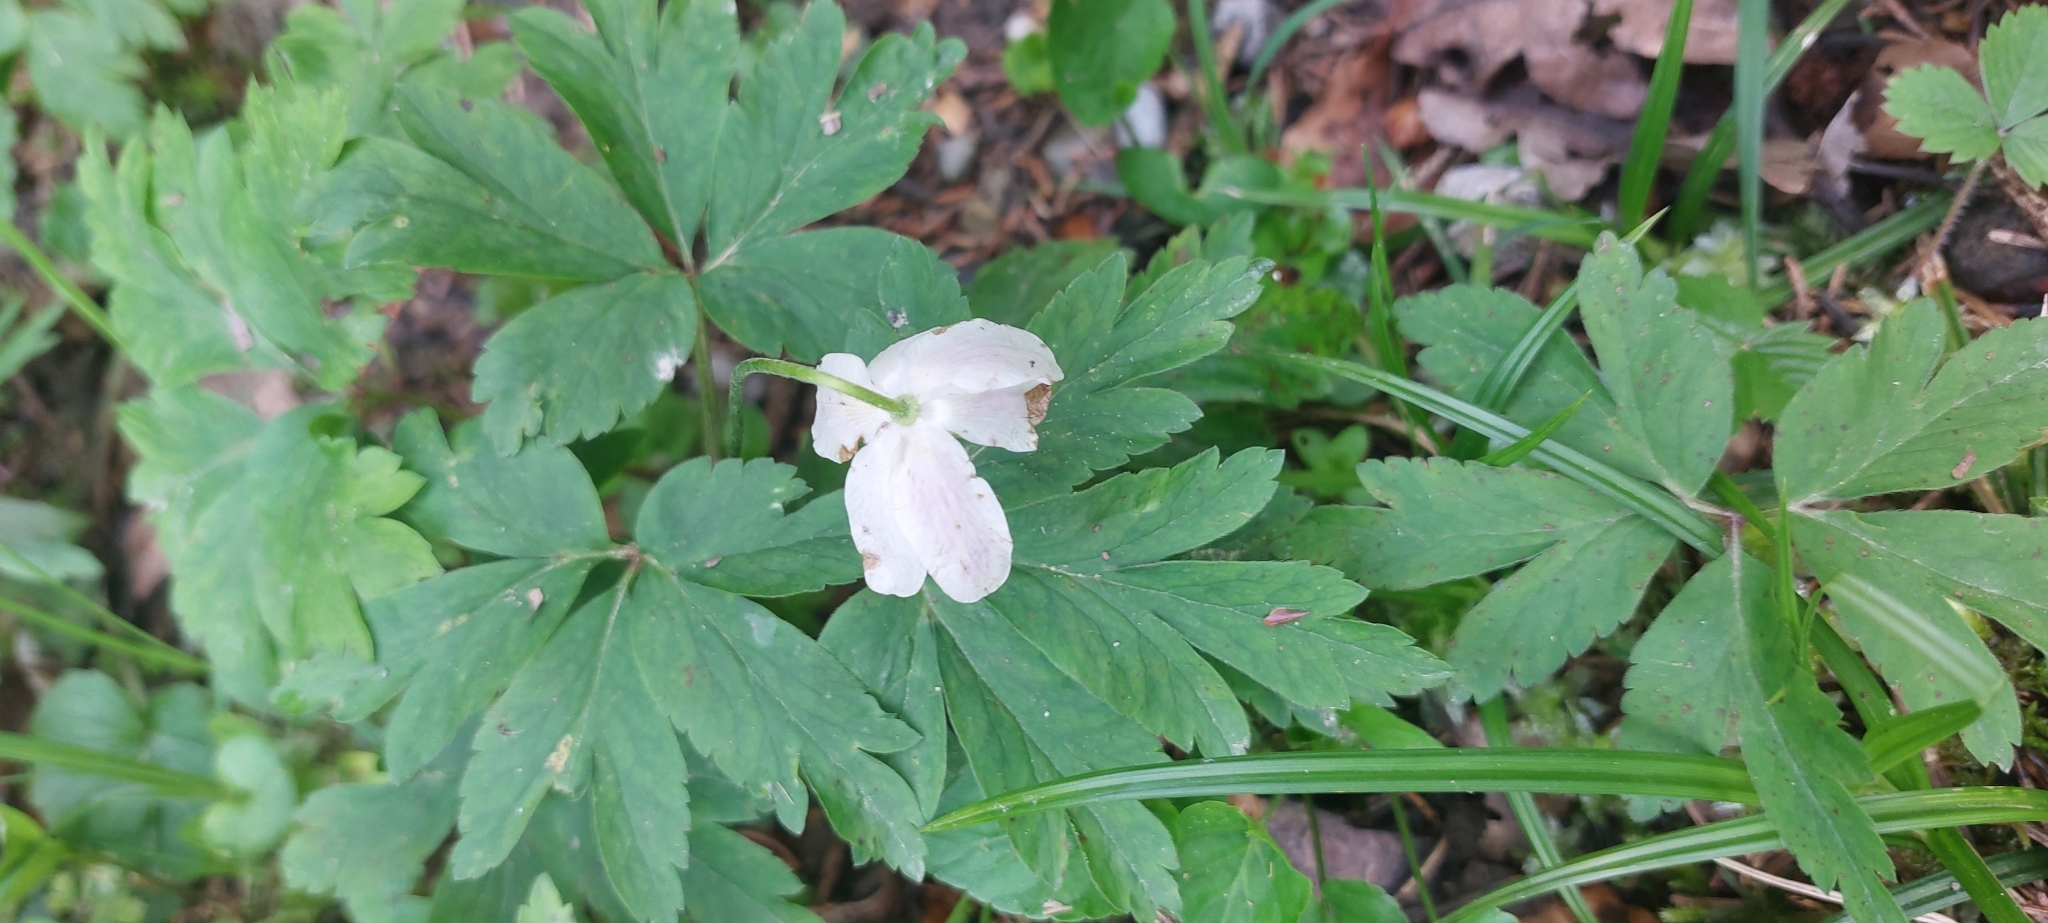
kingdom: Plantae
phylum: Tracheophyta
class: Magnoliopsida
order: Ranunculales
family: Ranunculaceae
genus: Anemone
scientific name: Anemone nemorosa
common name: Wood anemone
